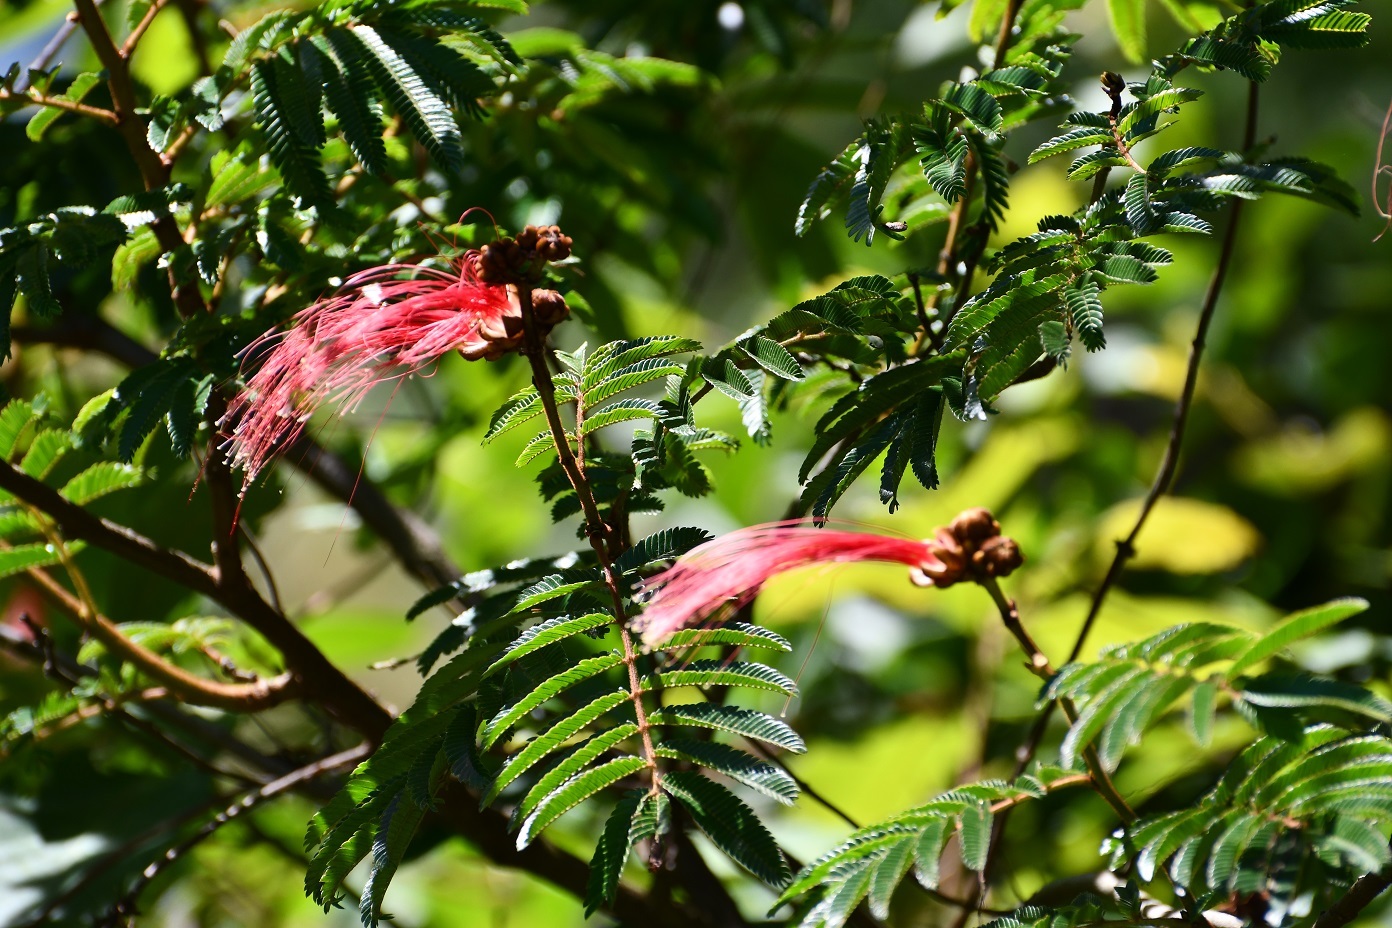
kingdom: Plantae
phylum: Tracheophyta
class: Magnoliopsida
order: Fabales
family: Fabaceae
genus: Calliandra
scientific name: Calliandra houstoniana
